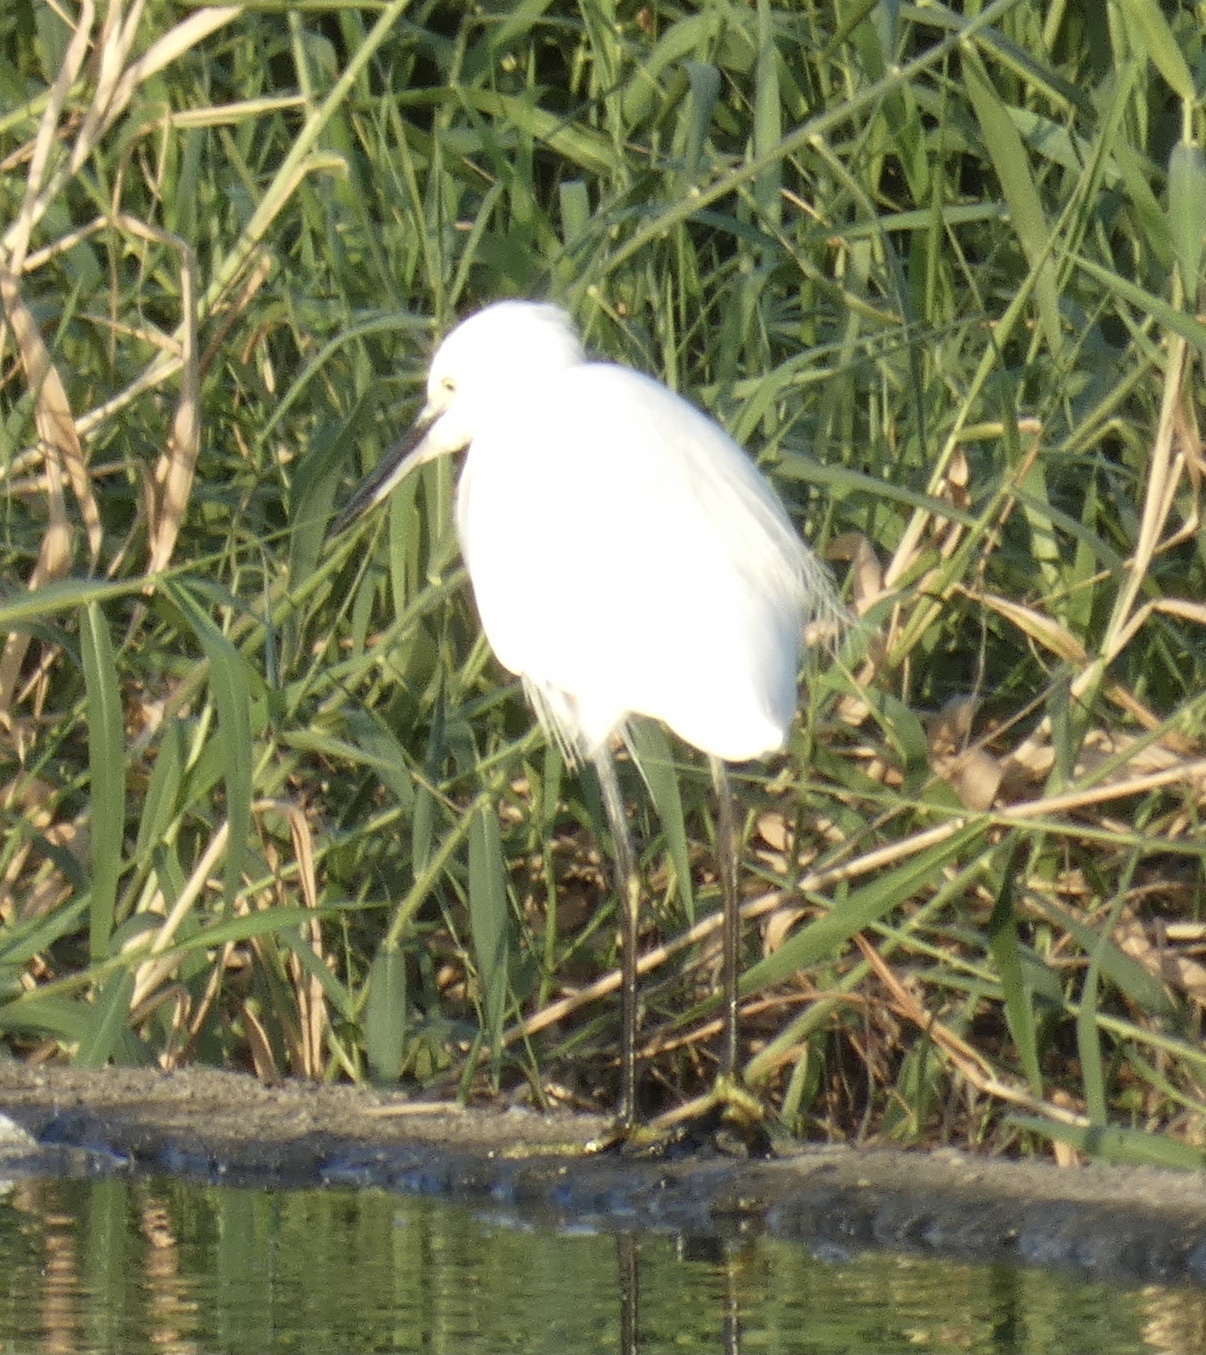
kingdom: Animalia
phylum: Chordata
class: Aves
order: Pelecaniformes
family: Ardeidae
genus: Egretta
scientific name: Egretta garzetta
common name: Little egret
